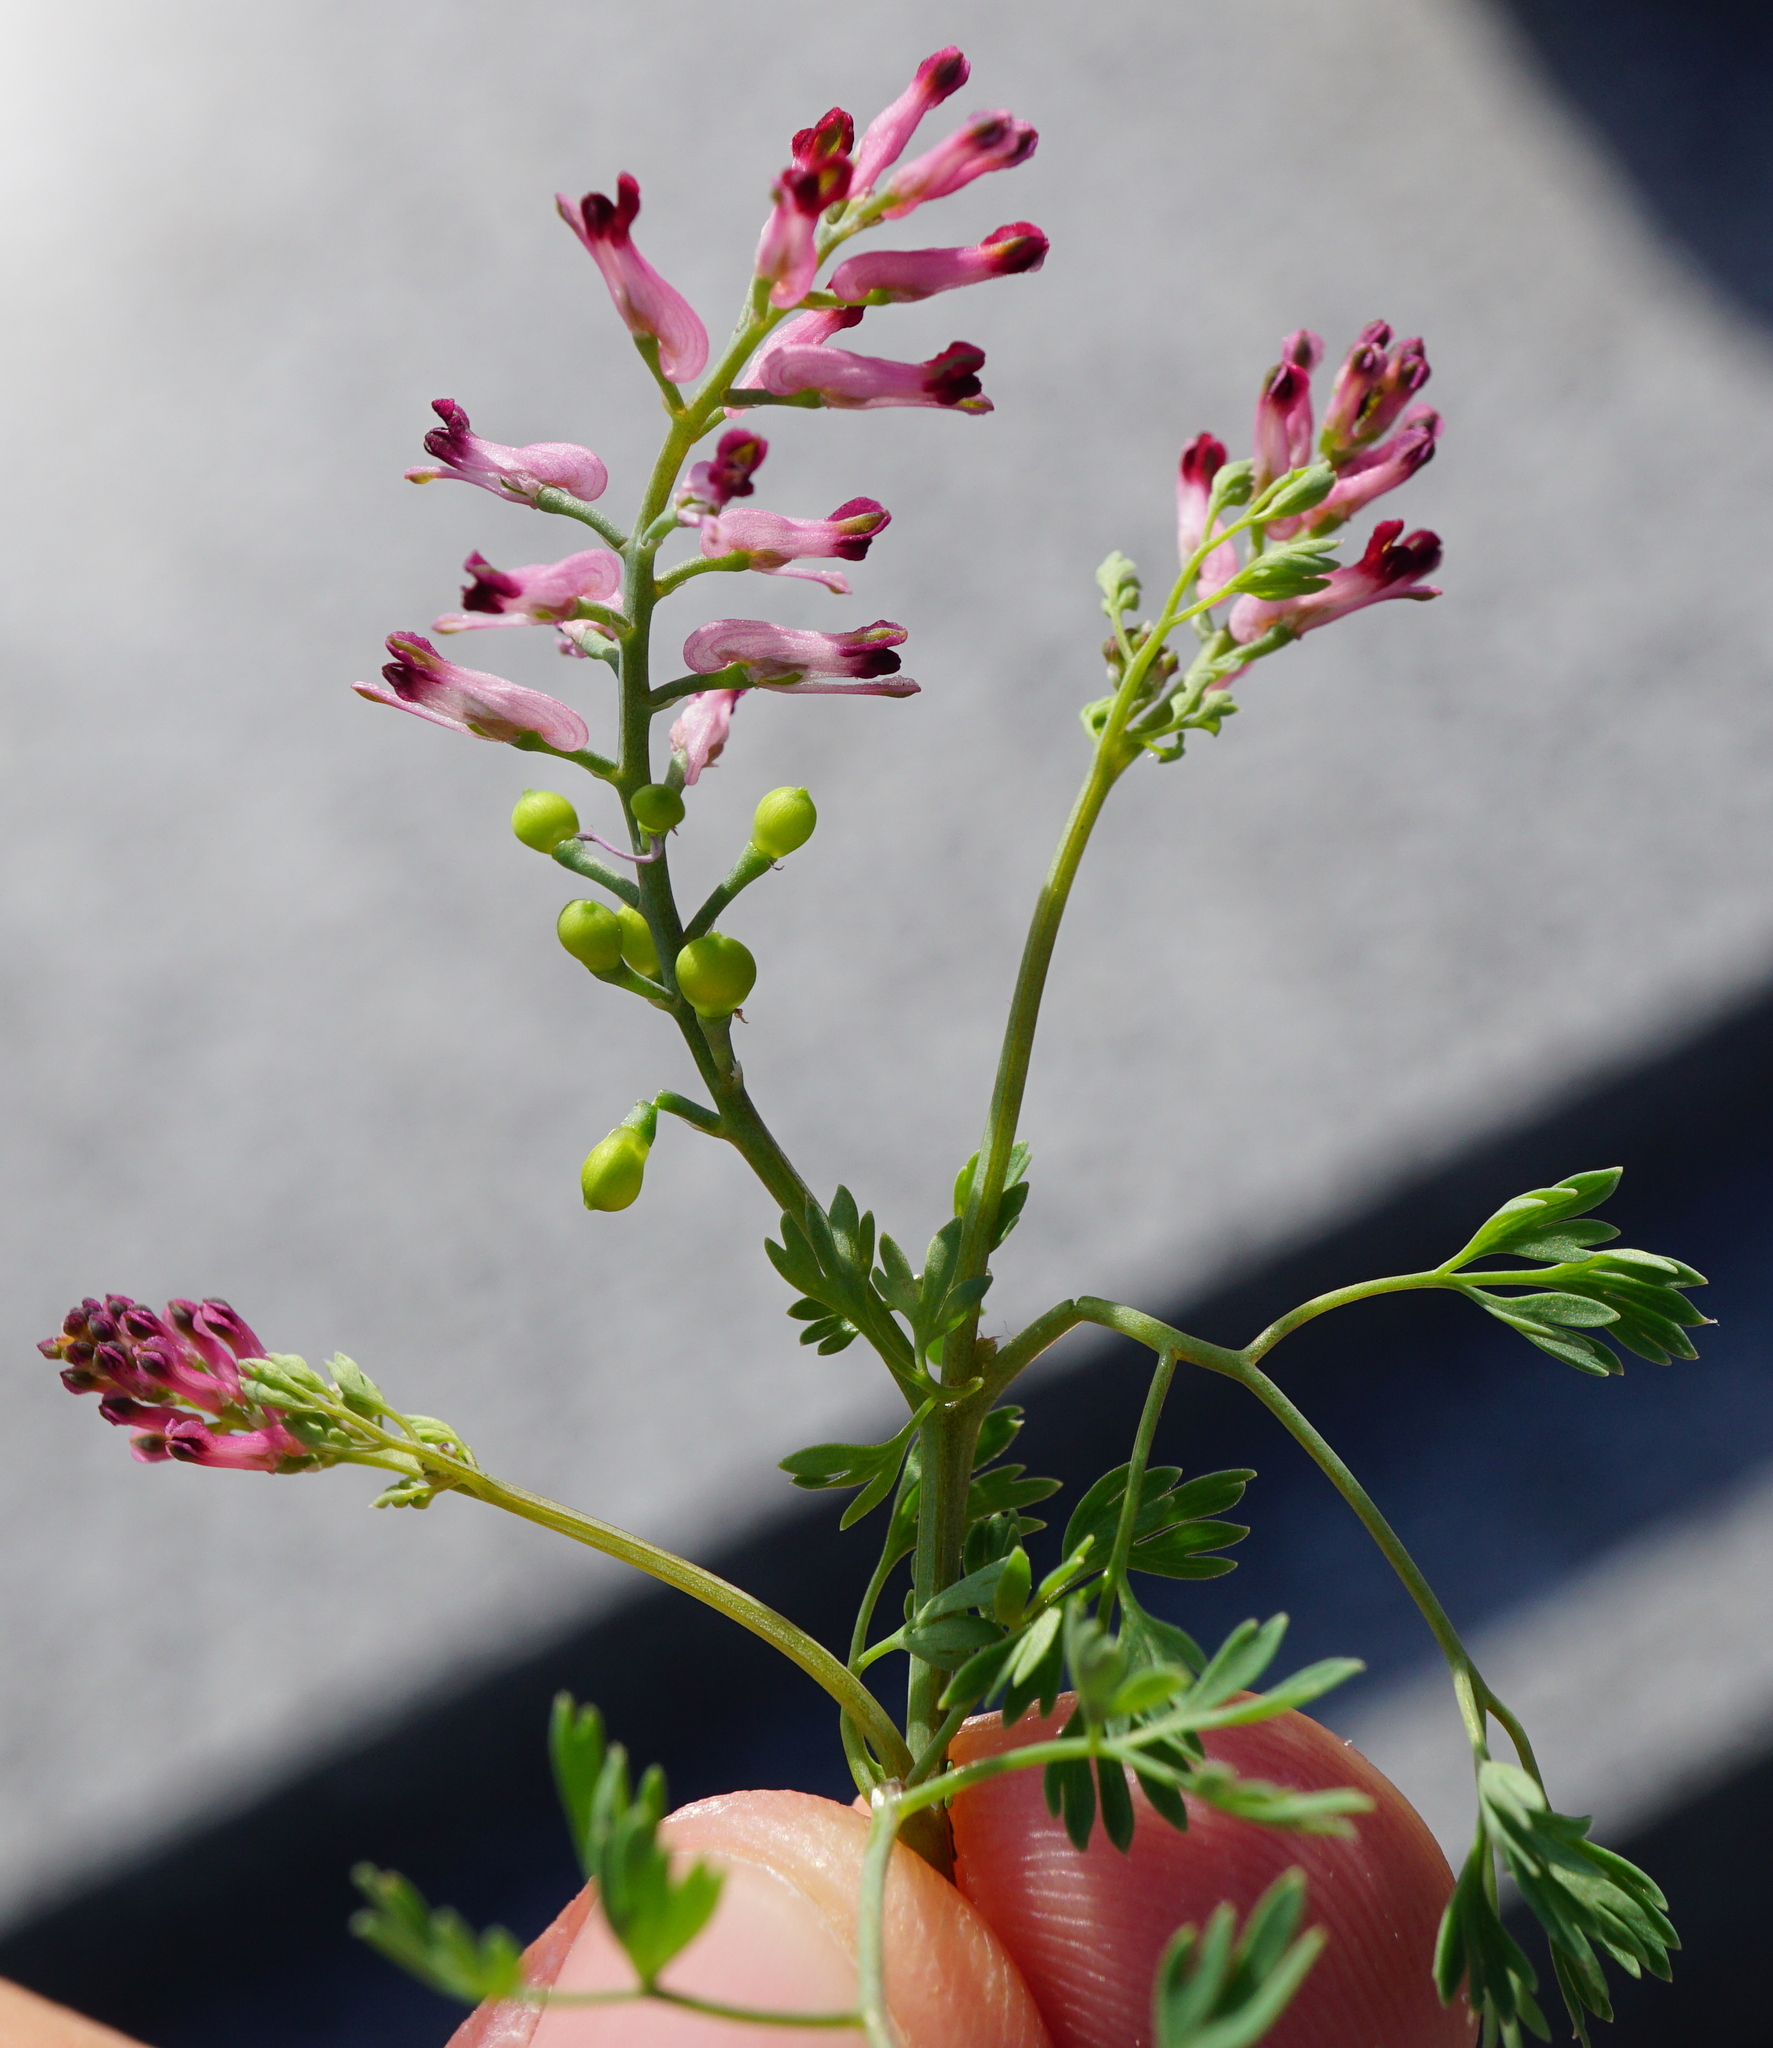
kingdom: Plantae
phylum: Tracheophyta
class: Magnoliopsida
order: Ranunculales
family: Papaveraceae
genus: Fumaria
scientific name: Fumaria schleicheri
